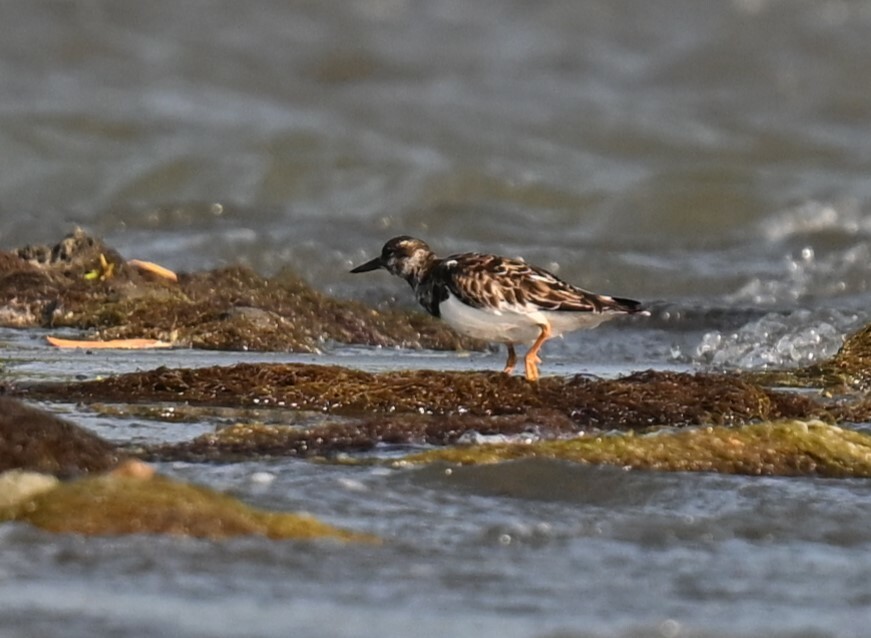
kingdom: Animalia
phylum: Chordata
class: Aves
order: Charadriiformes
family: Scolopacidae
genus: Arenaria
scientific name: Arenaria interpres
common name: Ruddy turnstone
